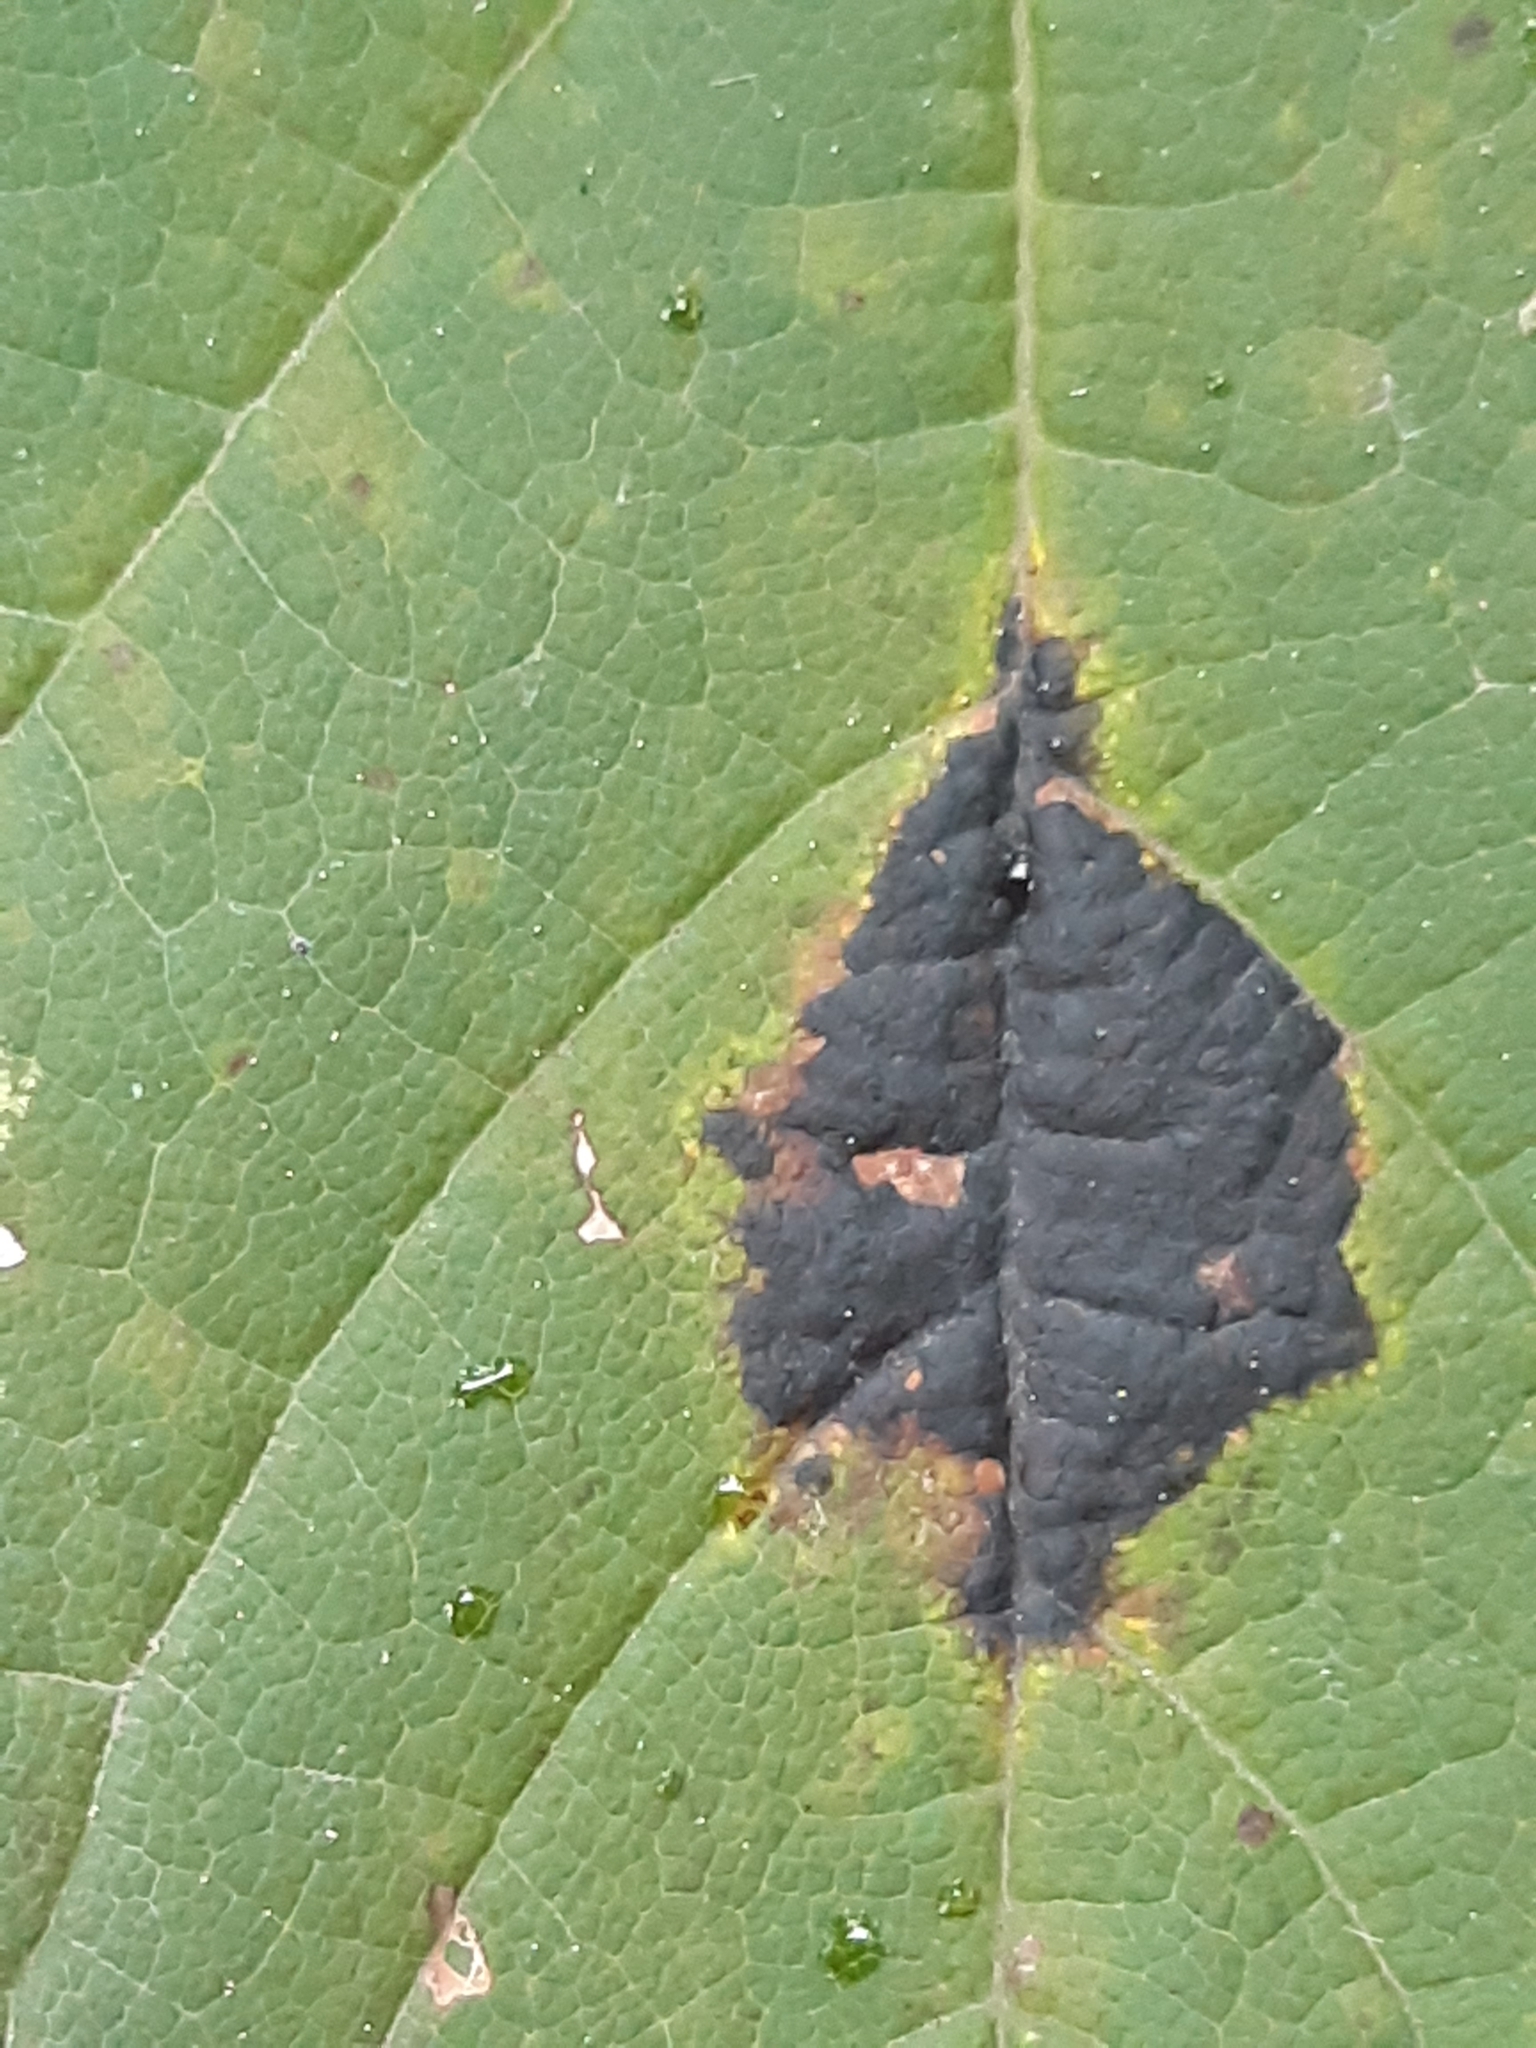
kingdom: Fungi
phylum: Ascomycota
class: Leotiomycetes
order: Rhytismatales
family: Rhytismataceae
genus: Rhytisma
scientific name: Rhytisma acerinum
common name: European tar spot
